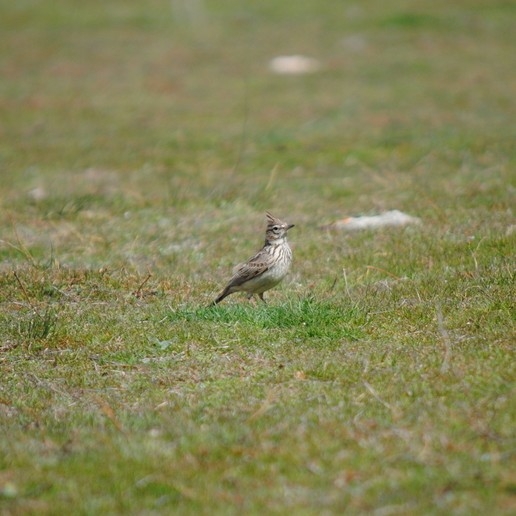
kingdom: Animalia
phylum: Chordata
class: Aves
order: Passeriformes
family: Alaudidae
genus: Galerida
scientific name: Galerida theklae
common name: Thekla lark
